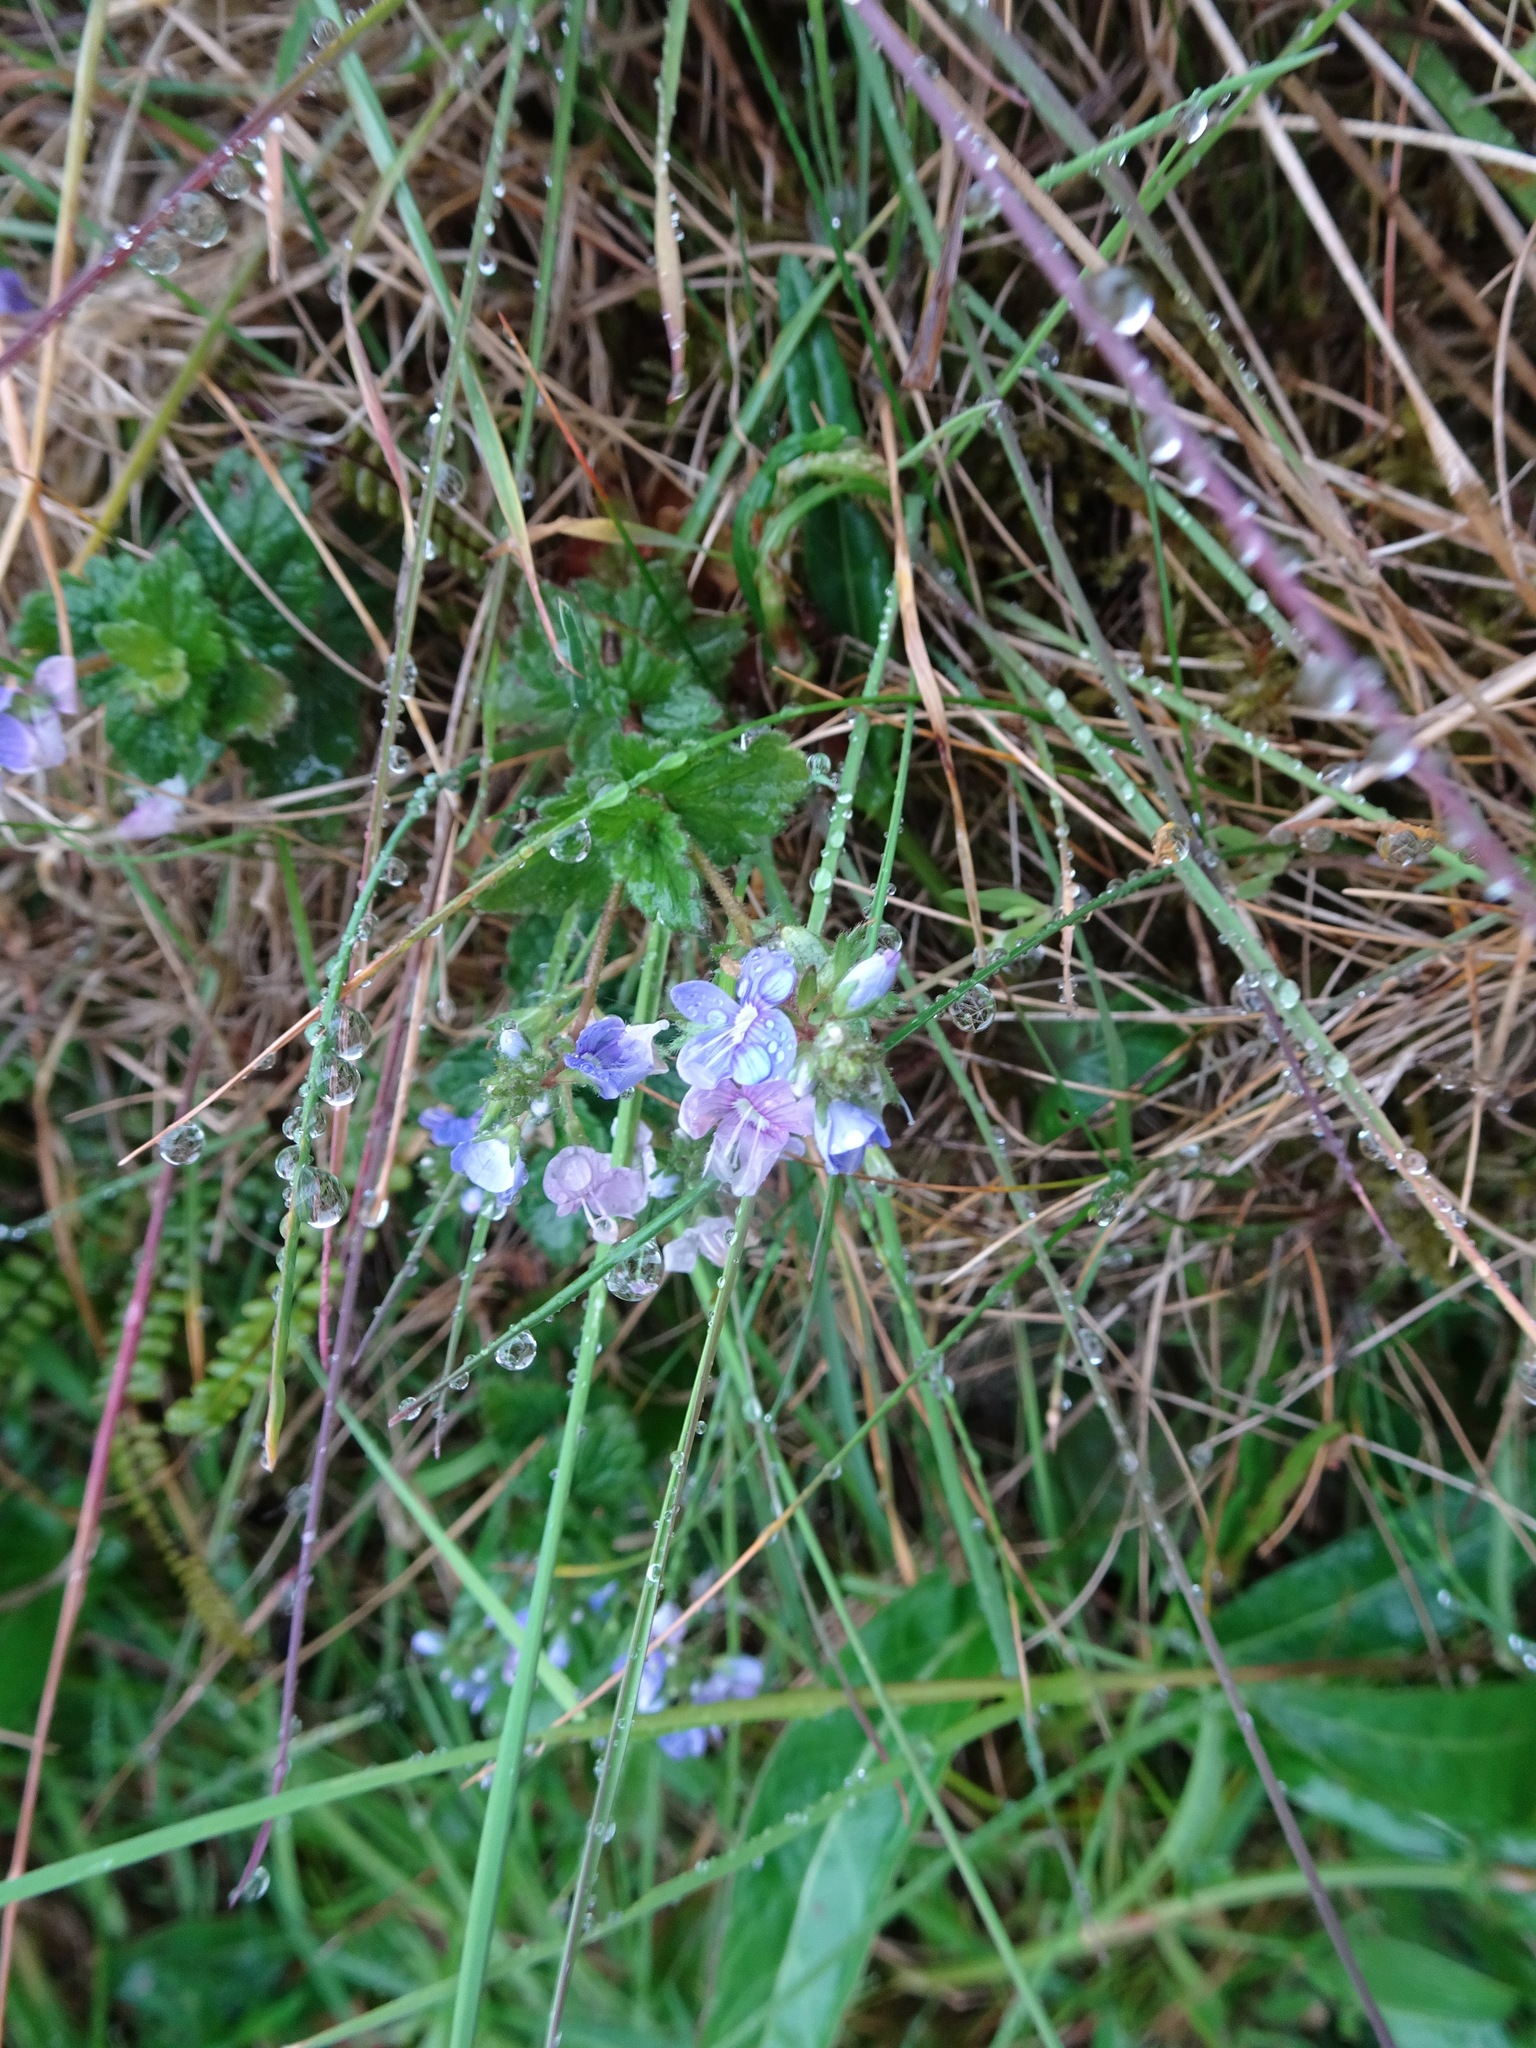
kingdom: Plantae
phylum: Tracheophyta
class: Magnoliopsida
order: Lamiales
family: Plantaginaceae
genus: Veronica
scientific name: Veronica chamaedrys
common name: Germander speedwell
